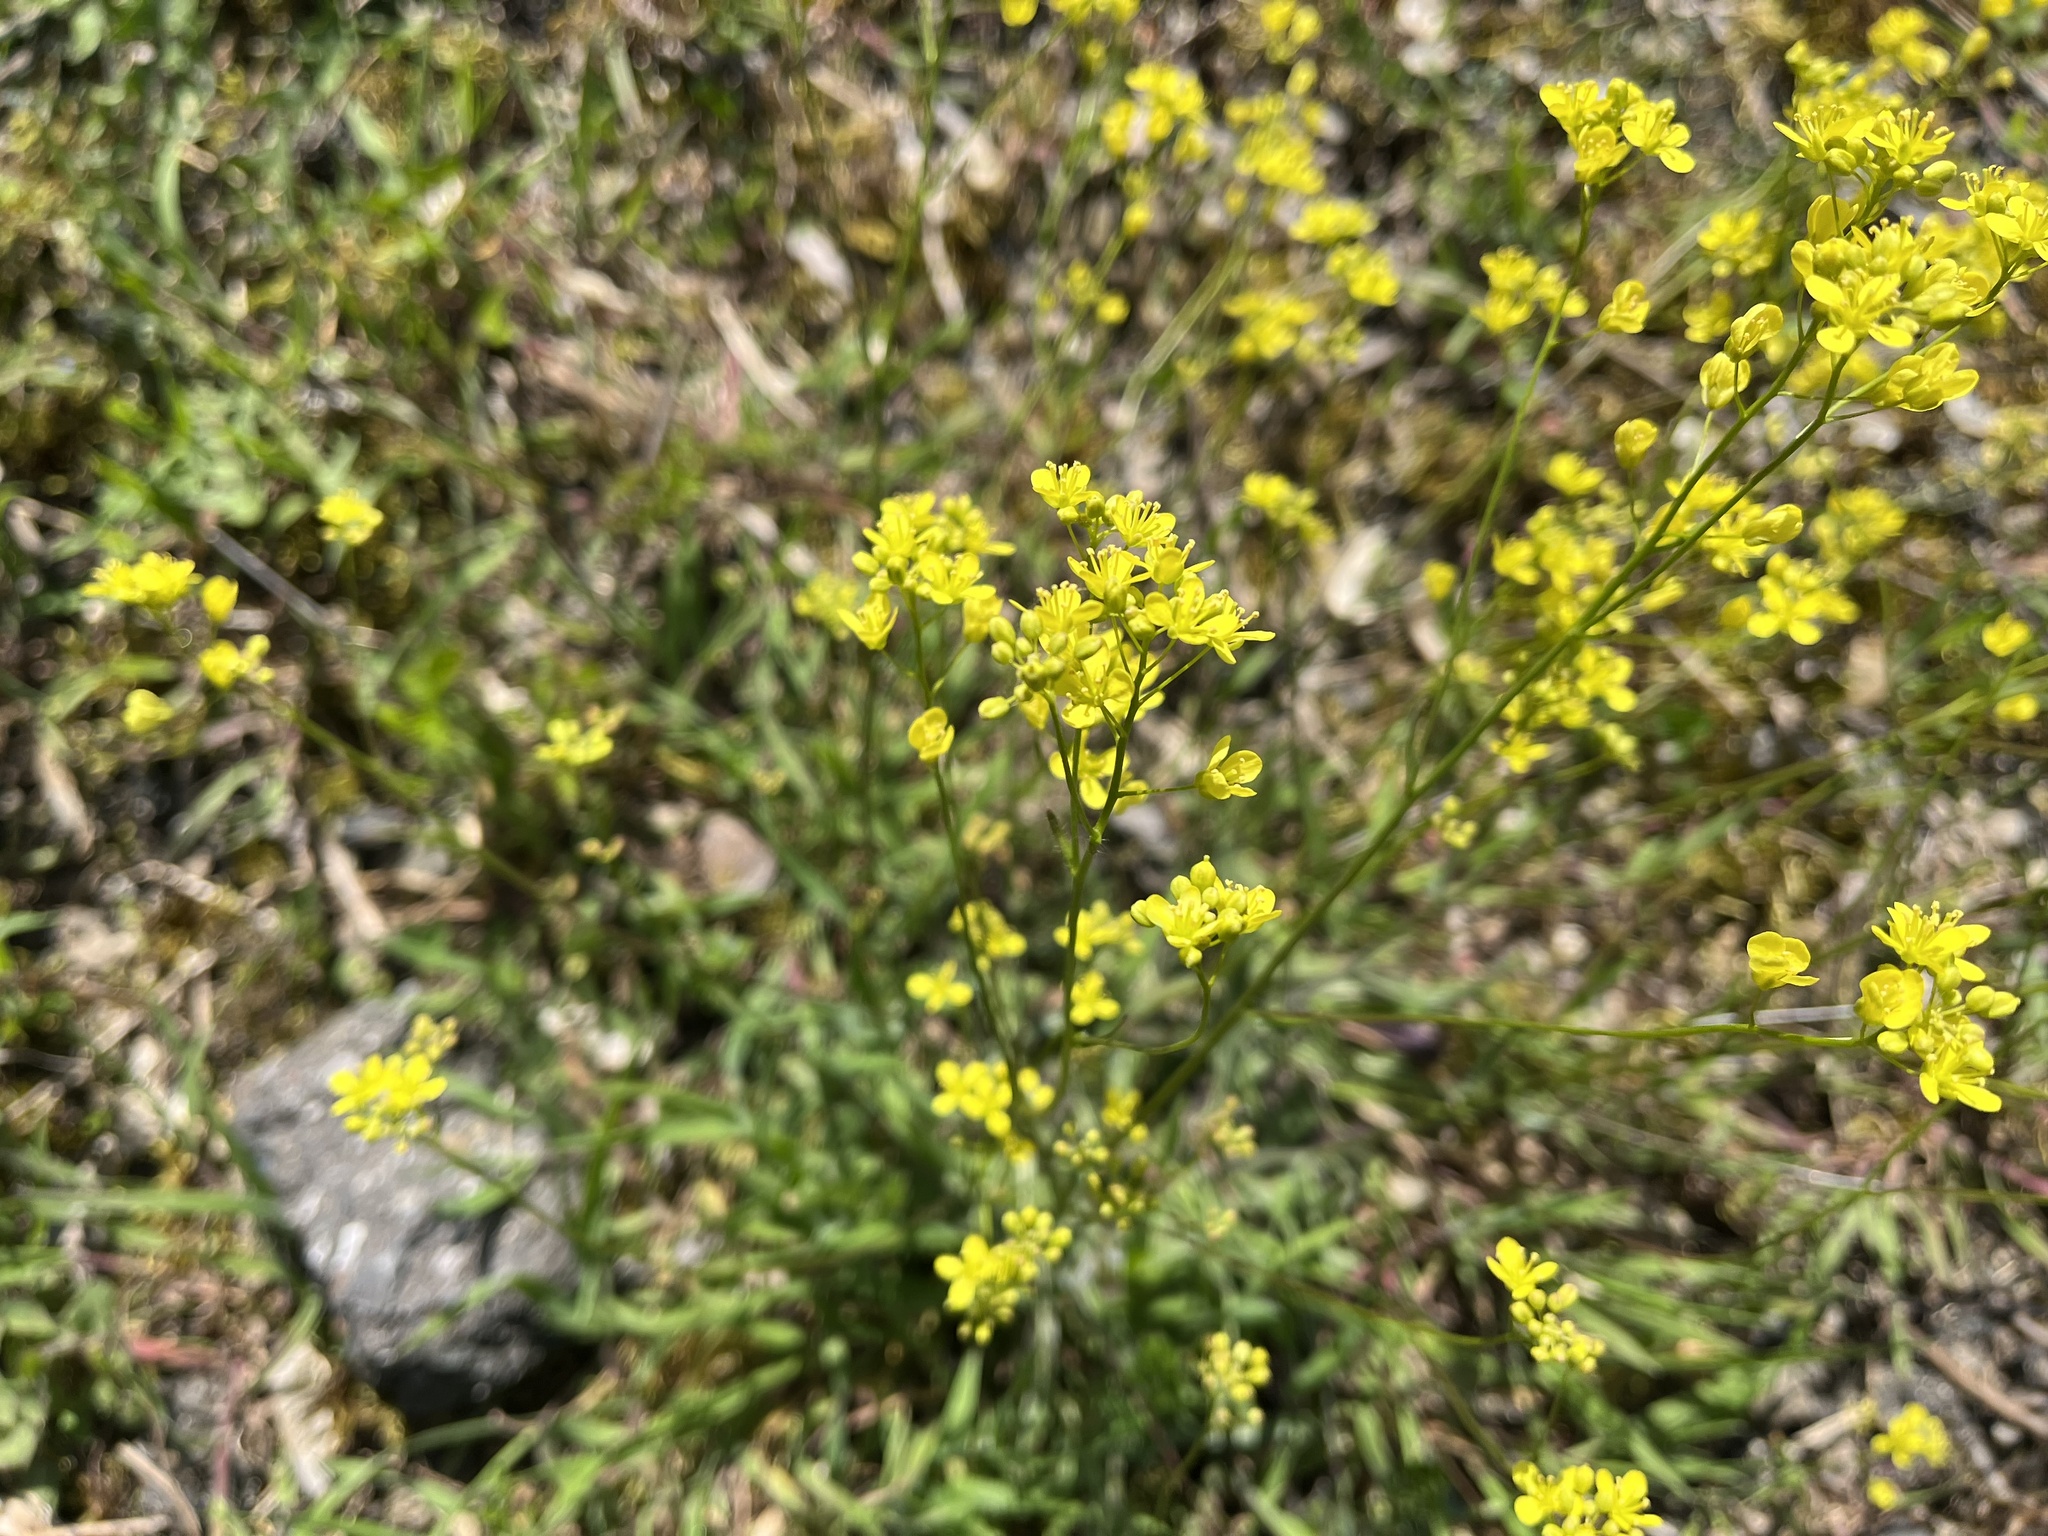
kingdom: Plantae
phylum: Tracheophyta
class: Magnoliopsida
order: Brassicales
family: Brassicaceae
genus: Biscutella
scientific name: Biscutella laevigata
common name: Buckler mustard
